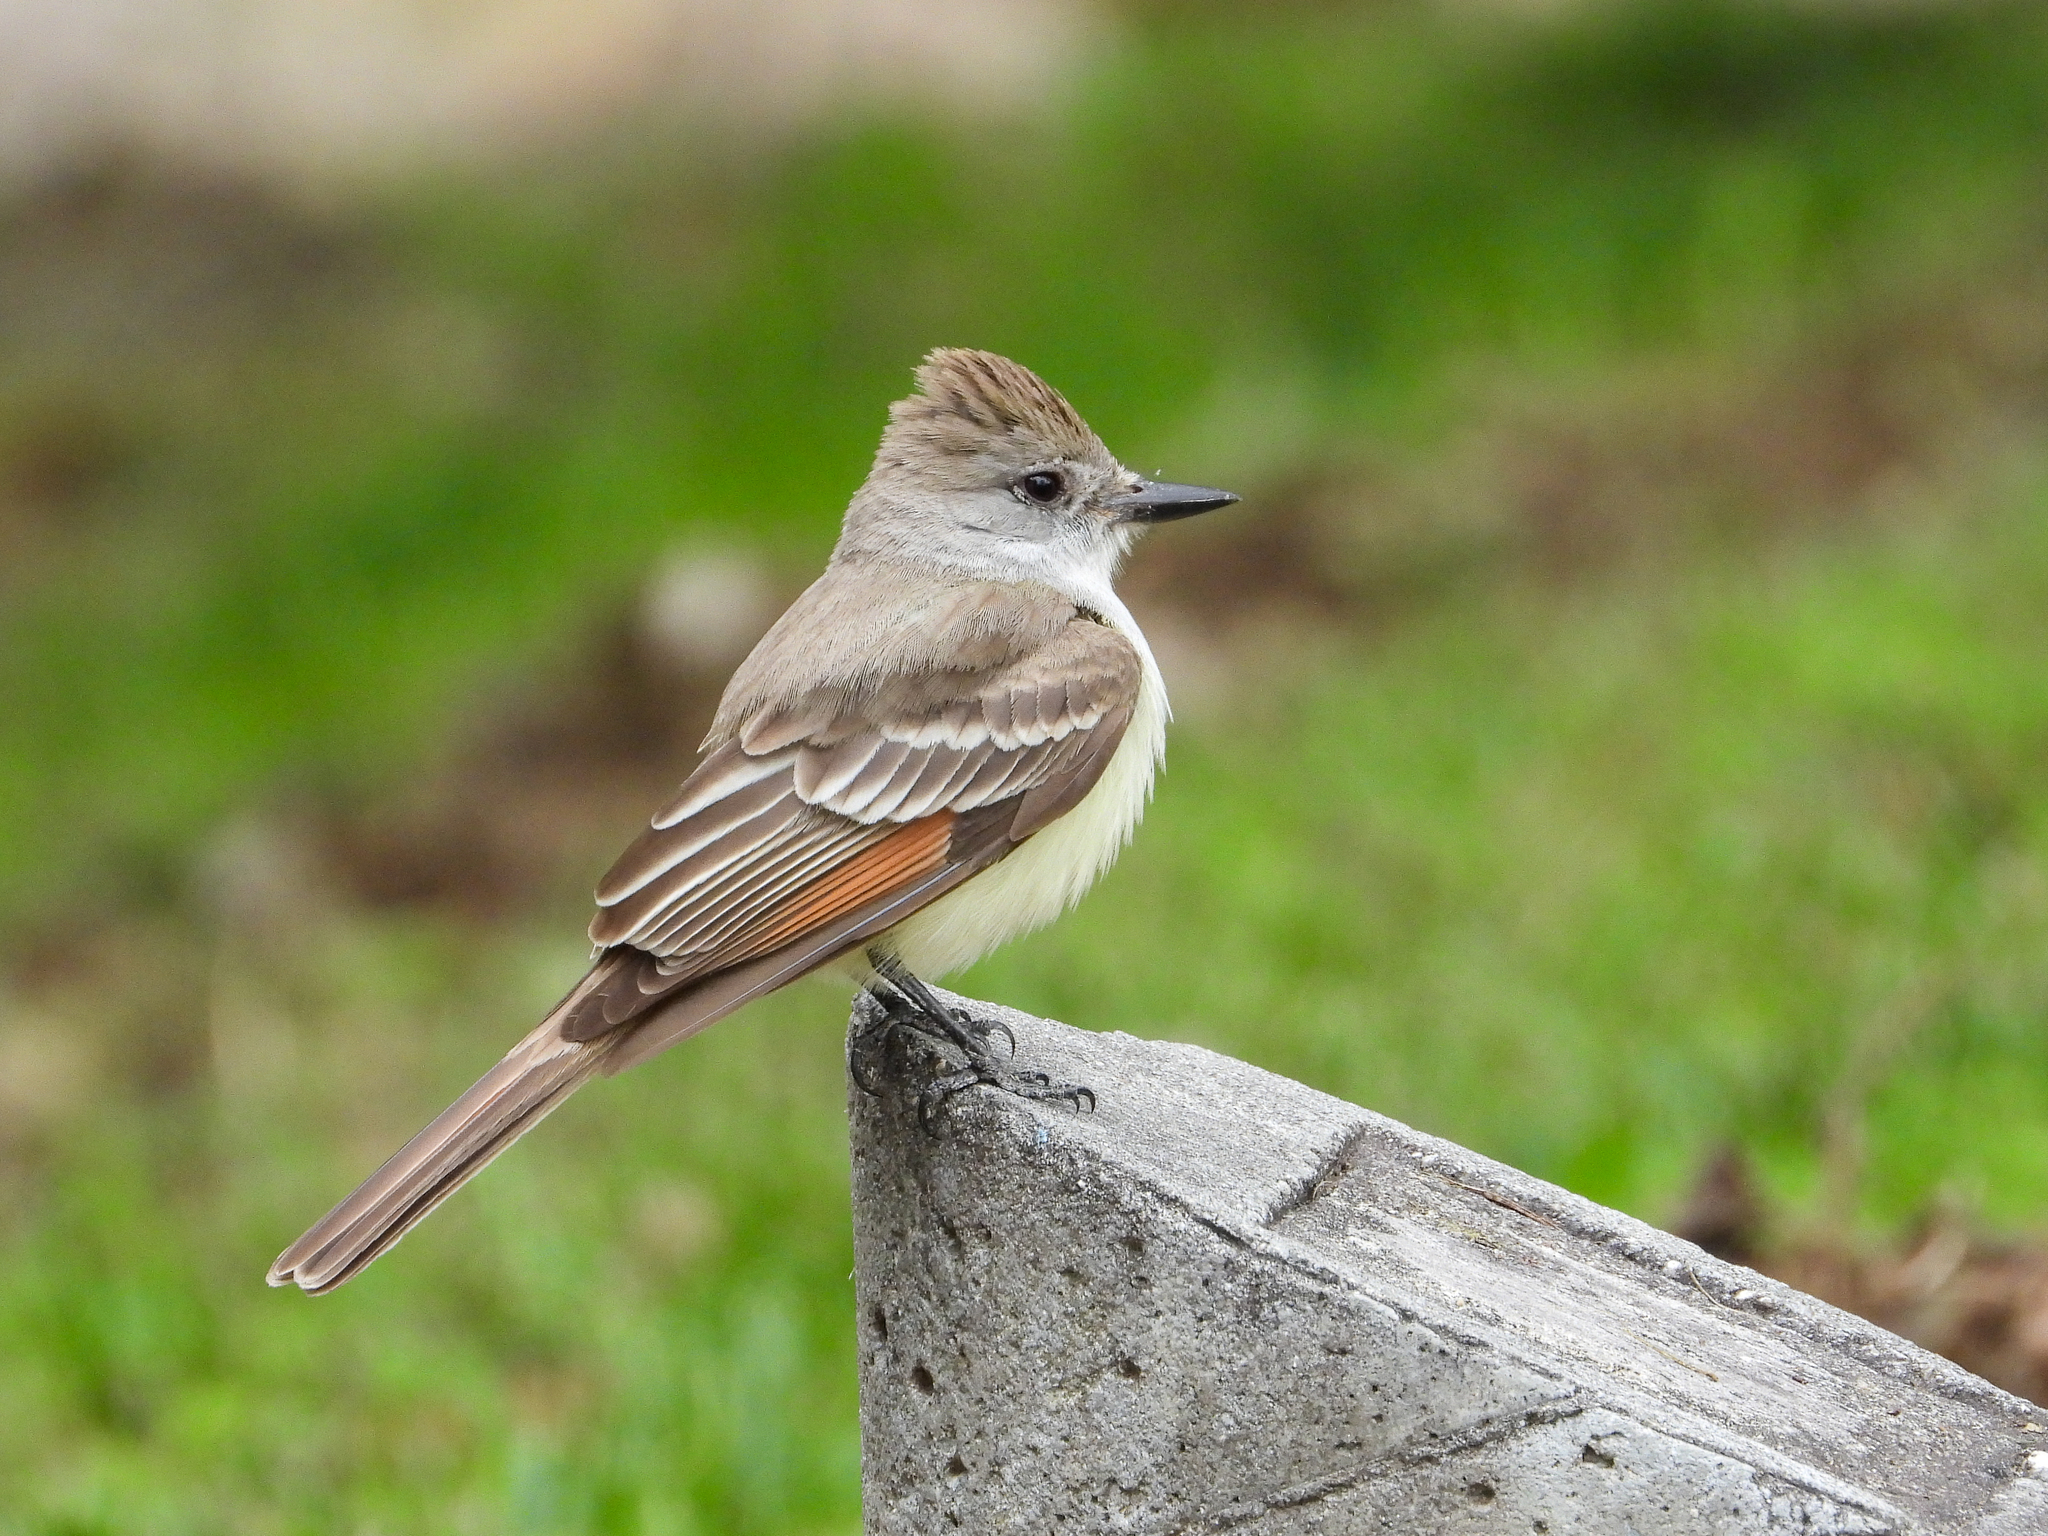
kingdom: Animalia
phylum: Chordata
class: Aves
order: Passeriformes
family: Tyrannidae
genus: Myiarchus
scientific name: Myiarchus cinerascens
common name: Ash-throated flycatcher
